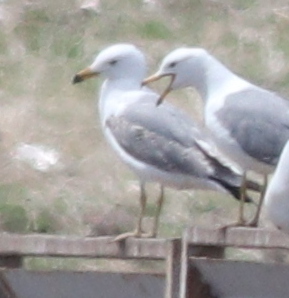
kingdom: Animalia
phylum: Chordata
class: Aves
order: Charadriiformes
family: Laridae
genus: Larus
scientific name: Larus armenicus
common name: Armenian gull
